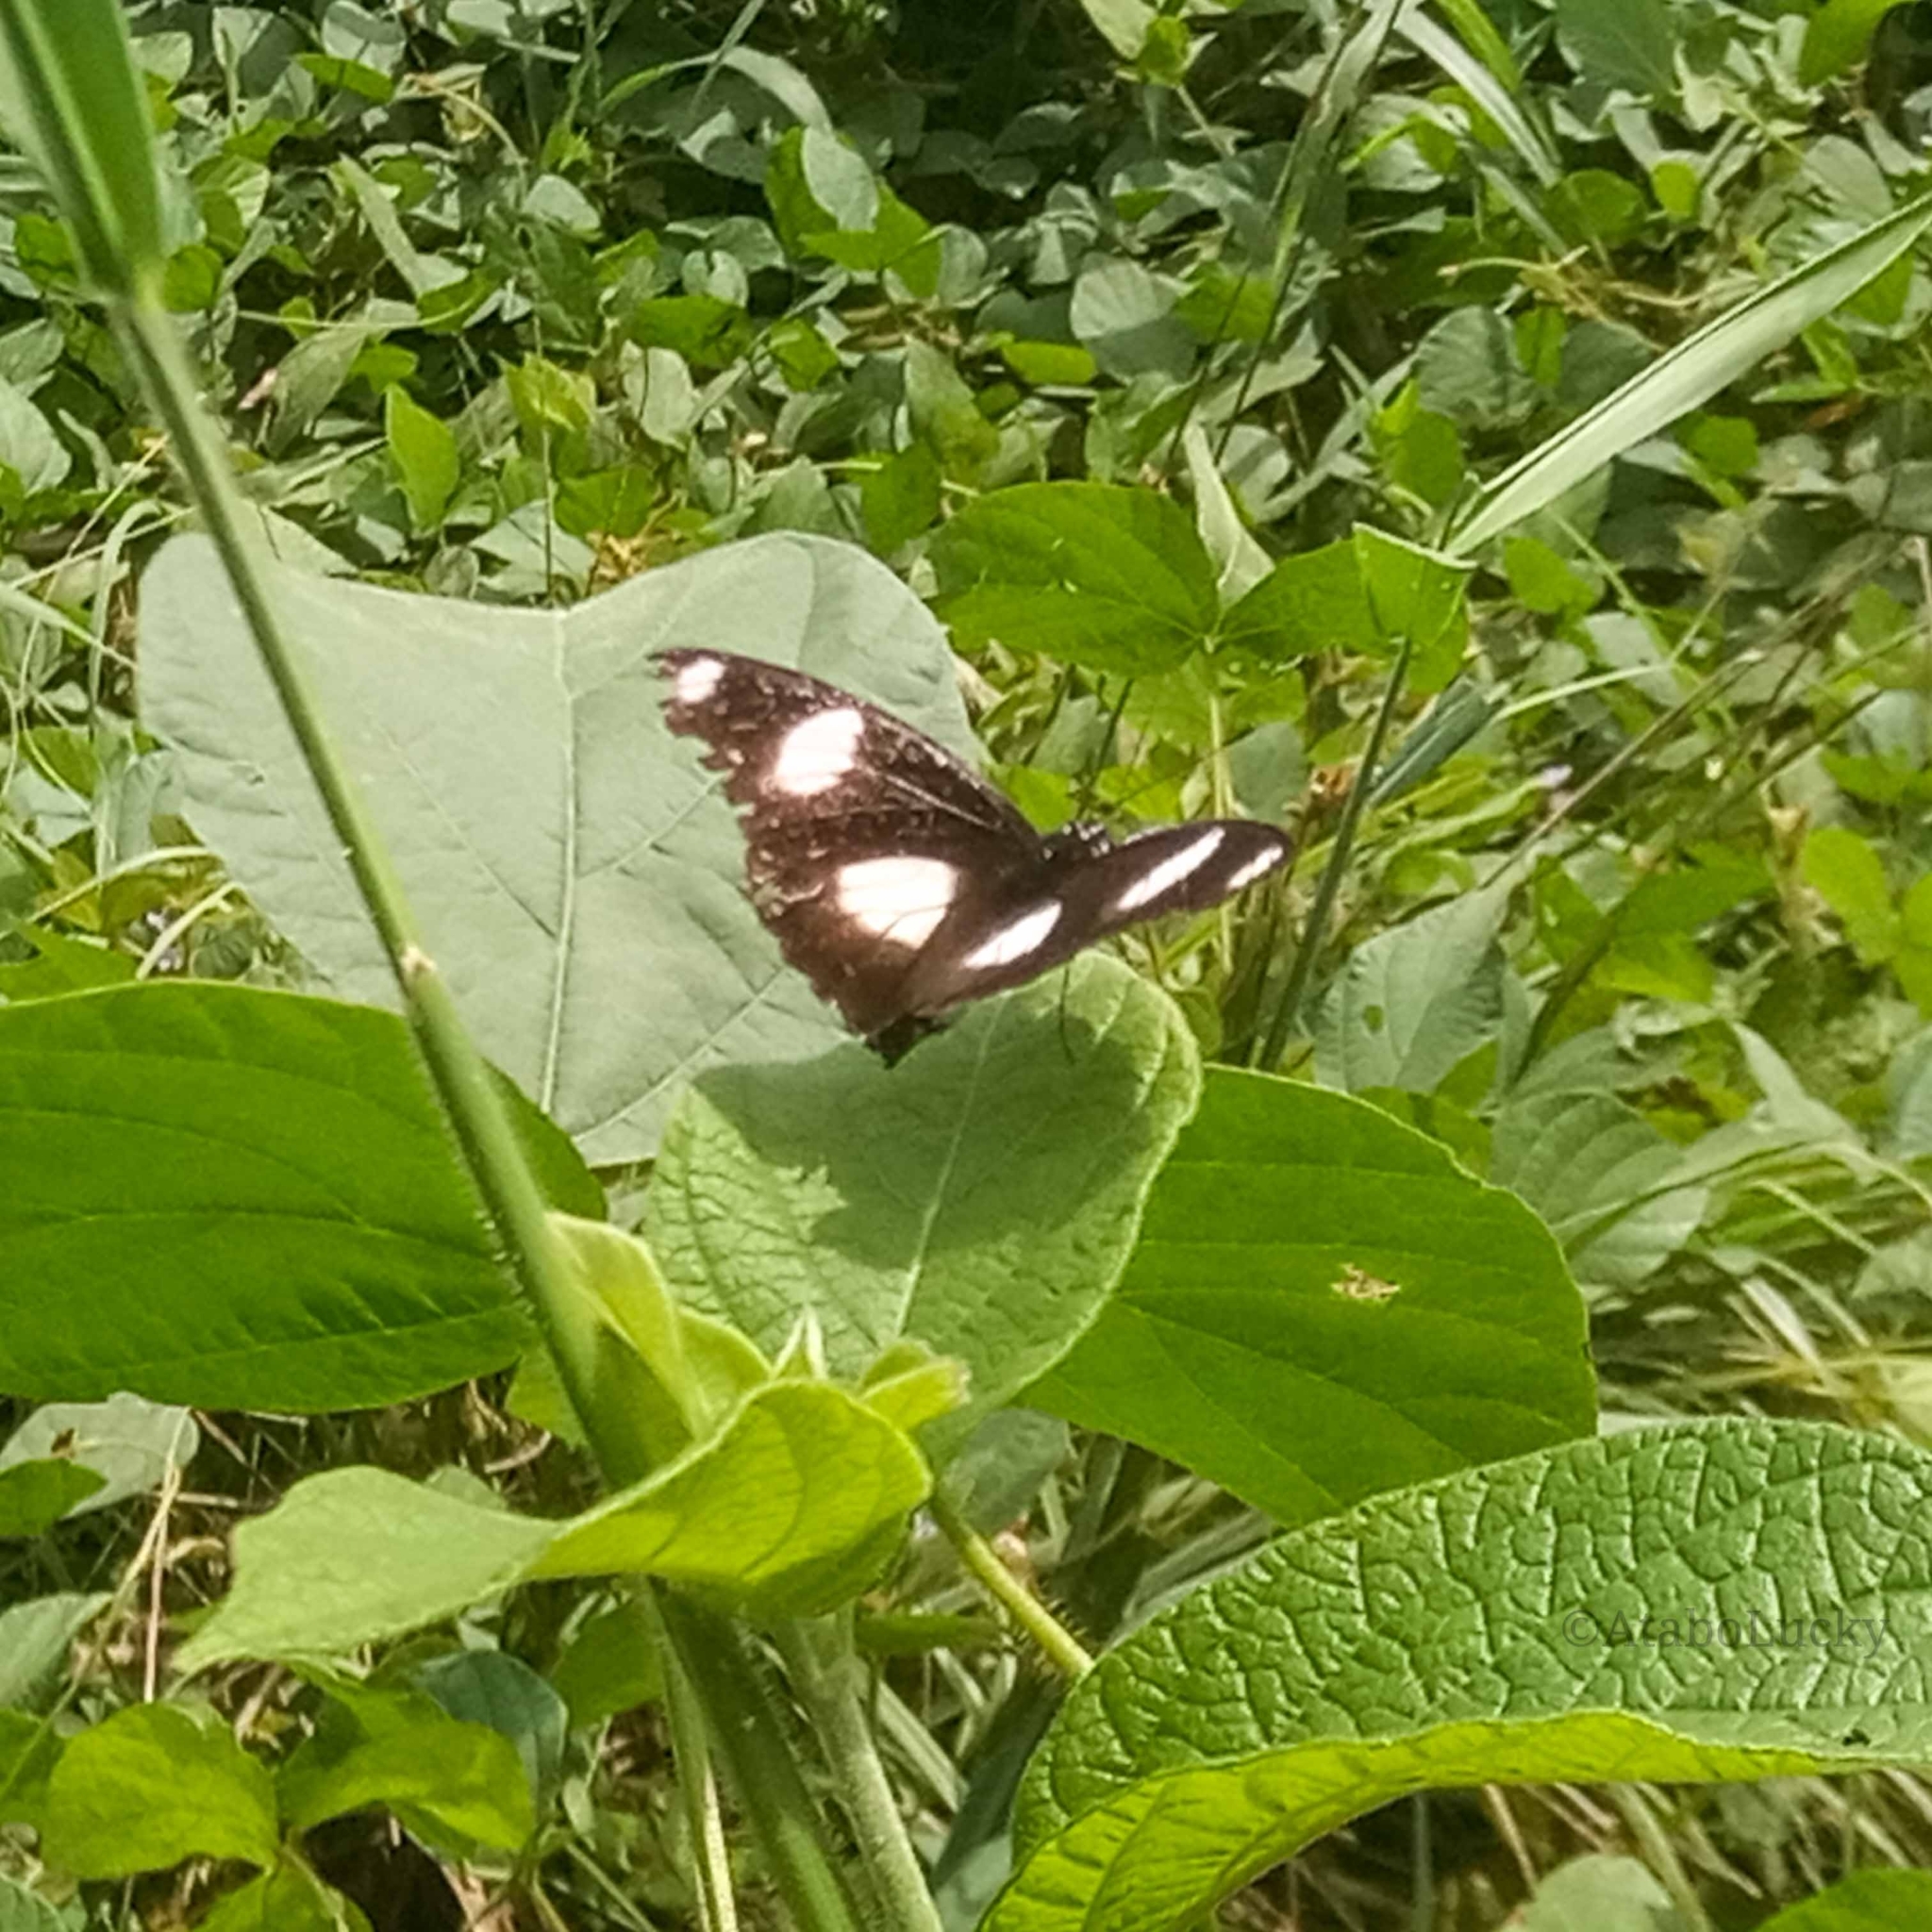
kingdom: Animalia
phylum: Arthropoda
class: Insecta
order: Lepidoptera
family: Nymphalidae
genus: Hypolimnas
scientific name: Hypolimnas misippus
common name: False plain tiger
